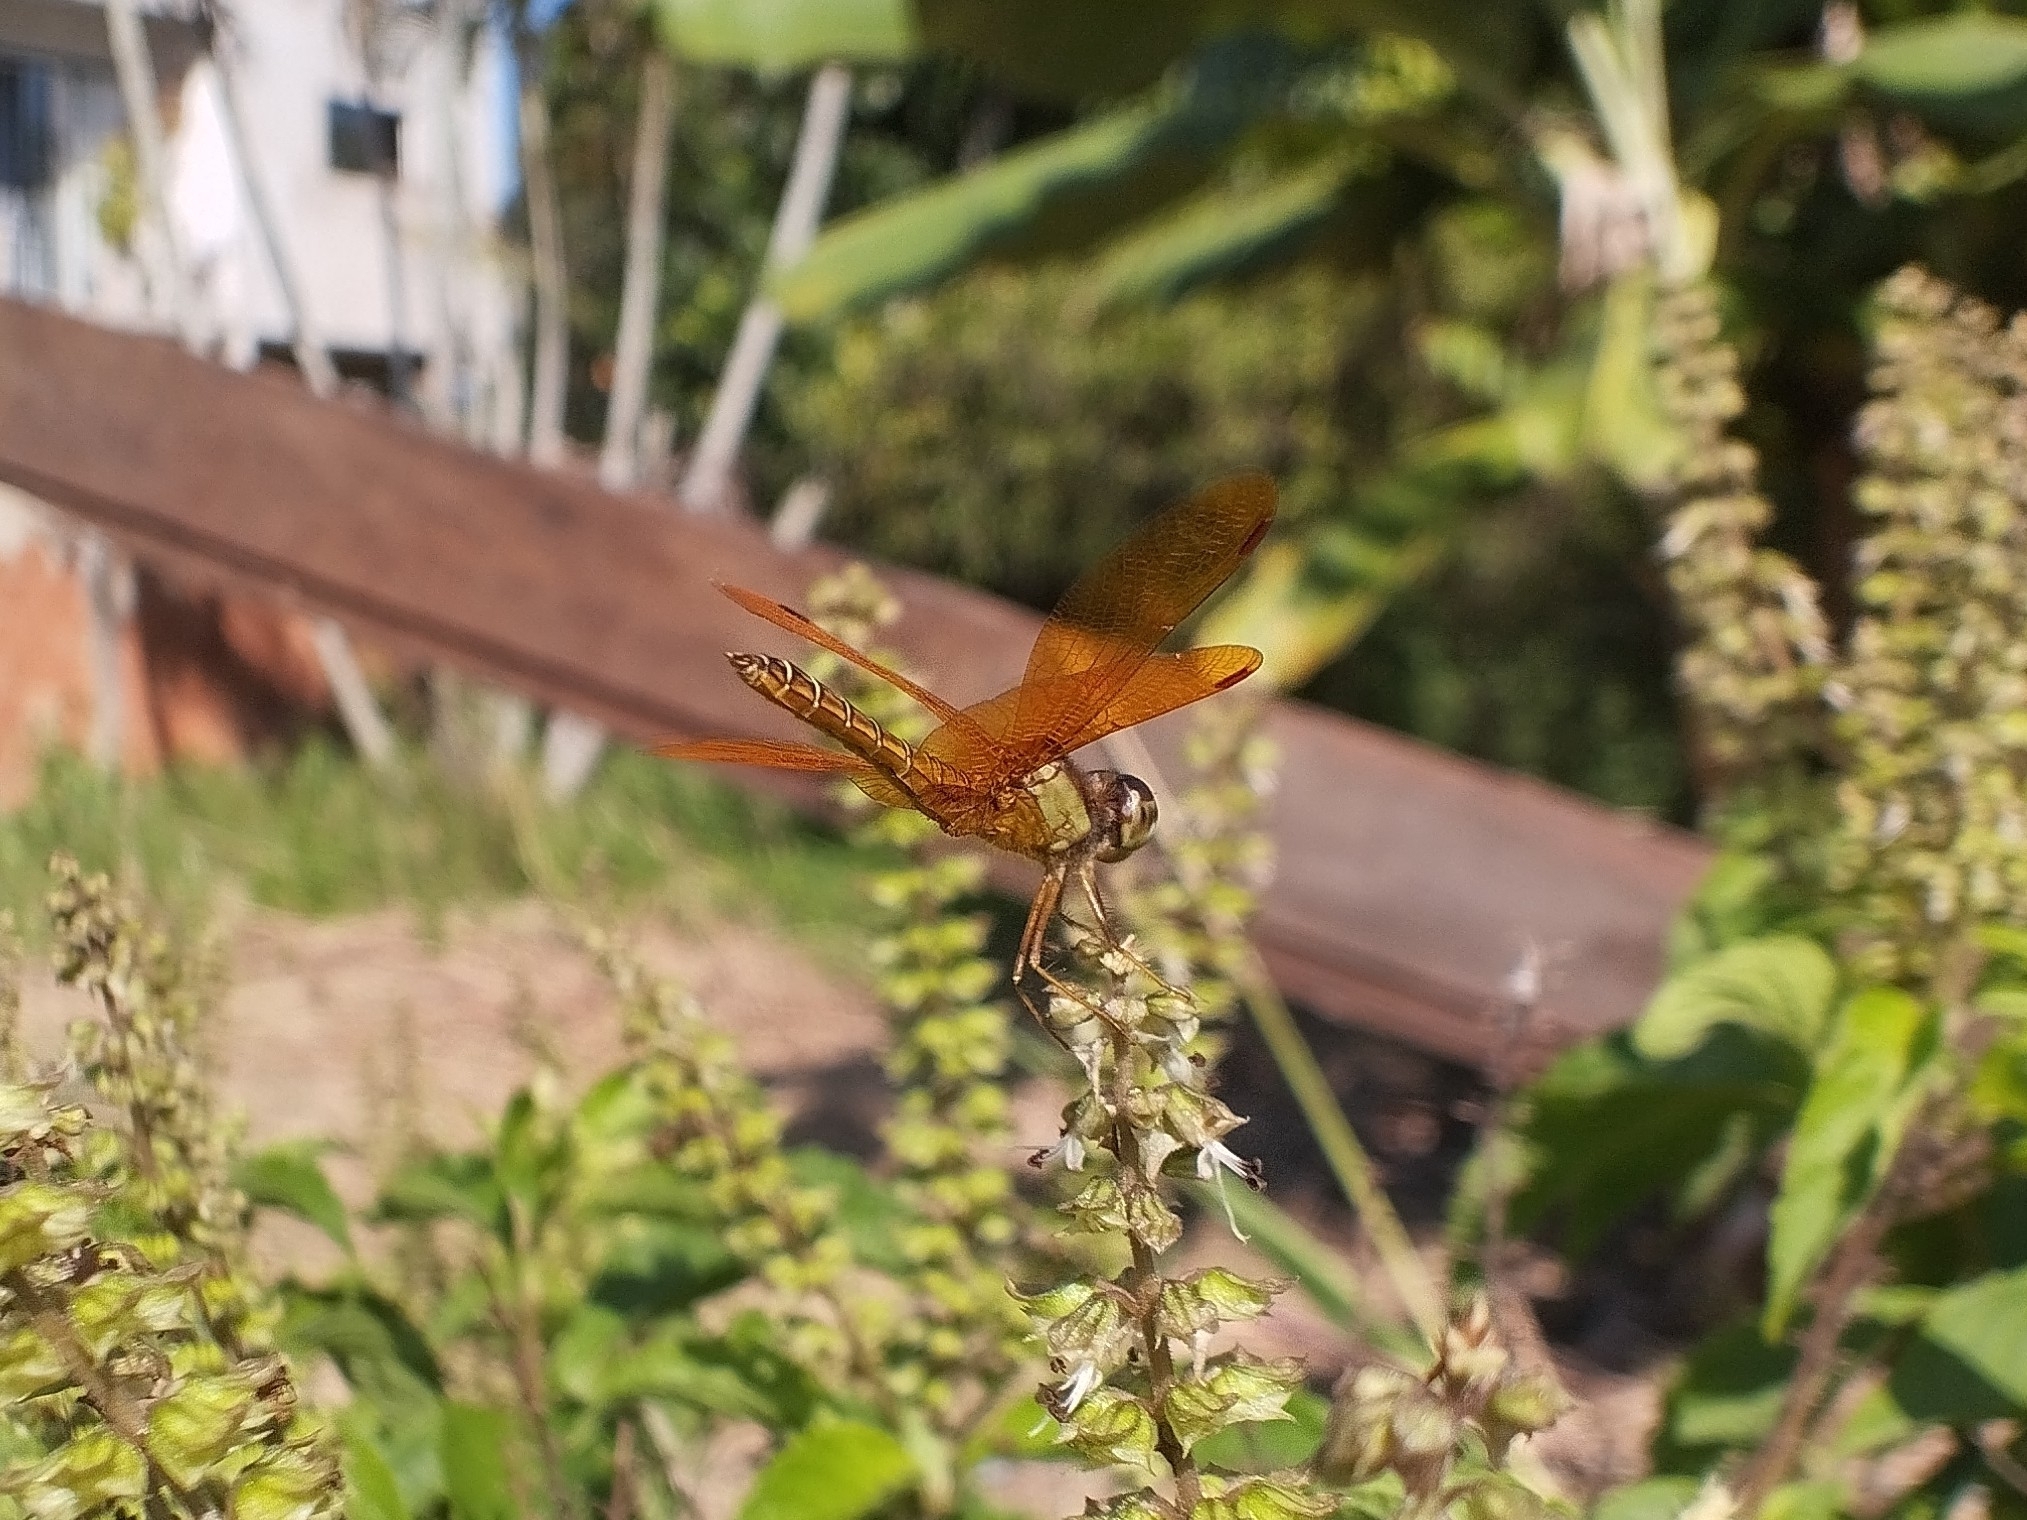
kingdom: Animalia
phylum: Arthropoda
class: Insecta
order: Odonata
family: Libellulidae
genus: Perithemis
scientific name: Perithemis tenera
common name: Eastern amberwing
